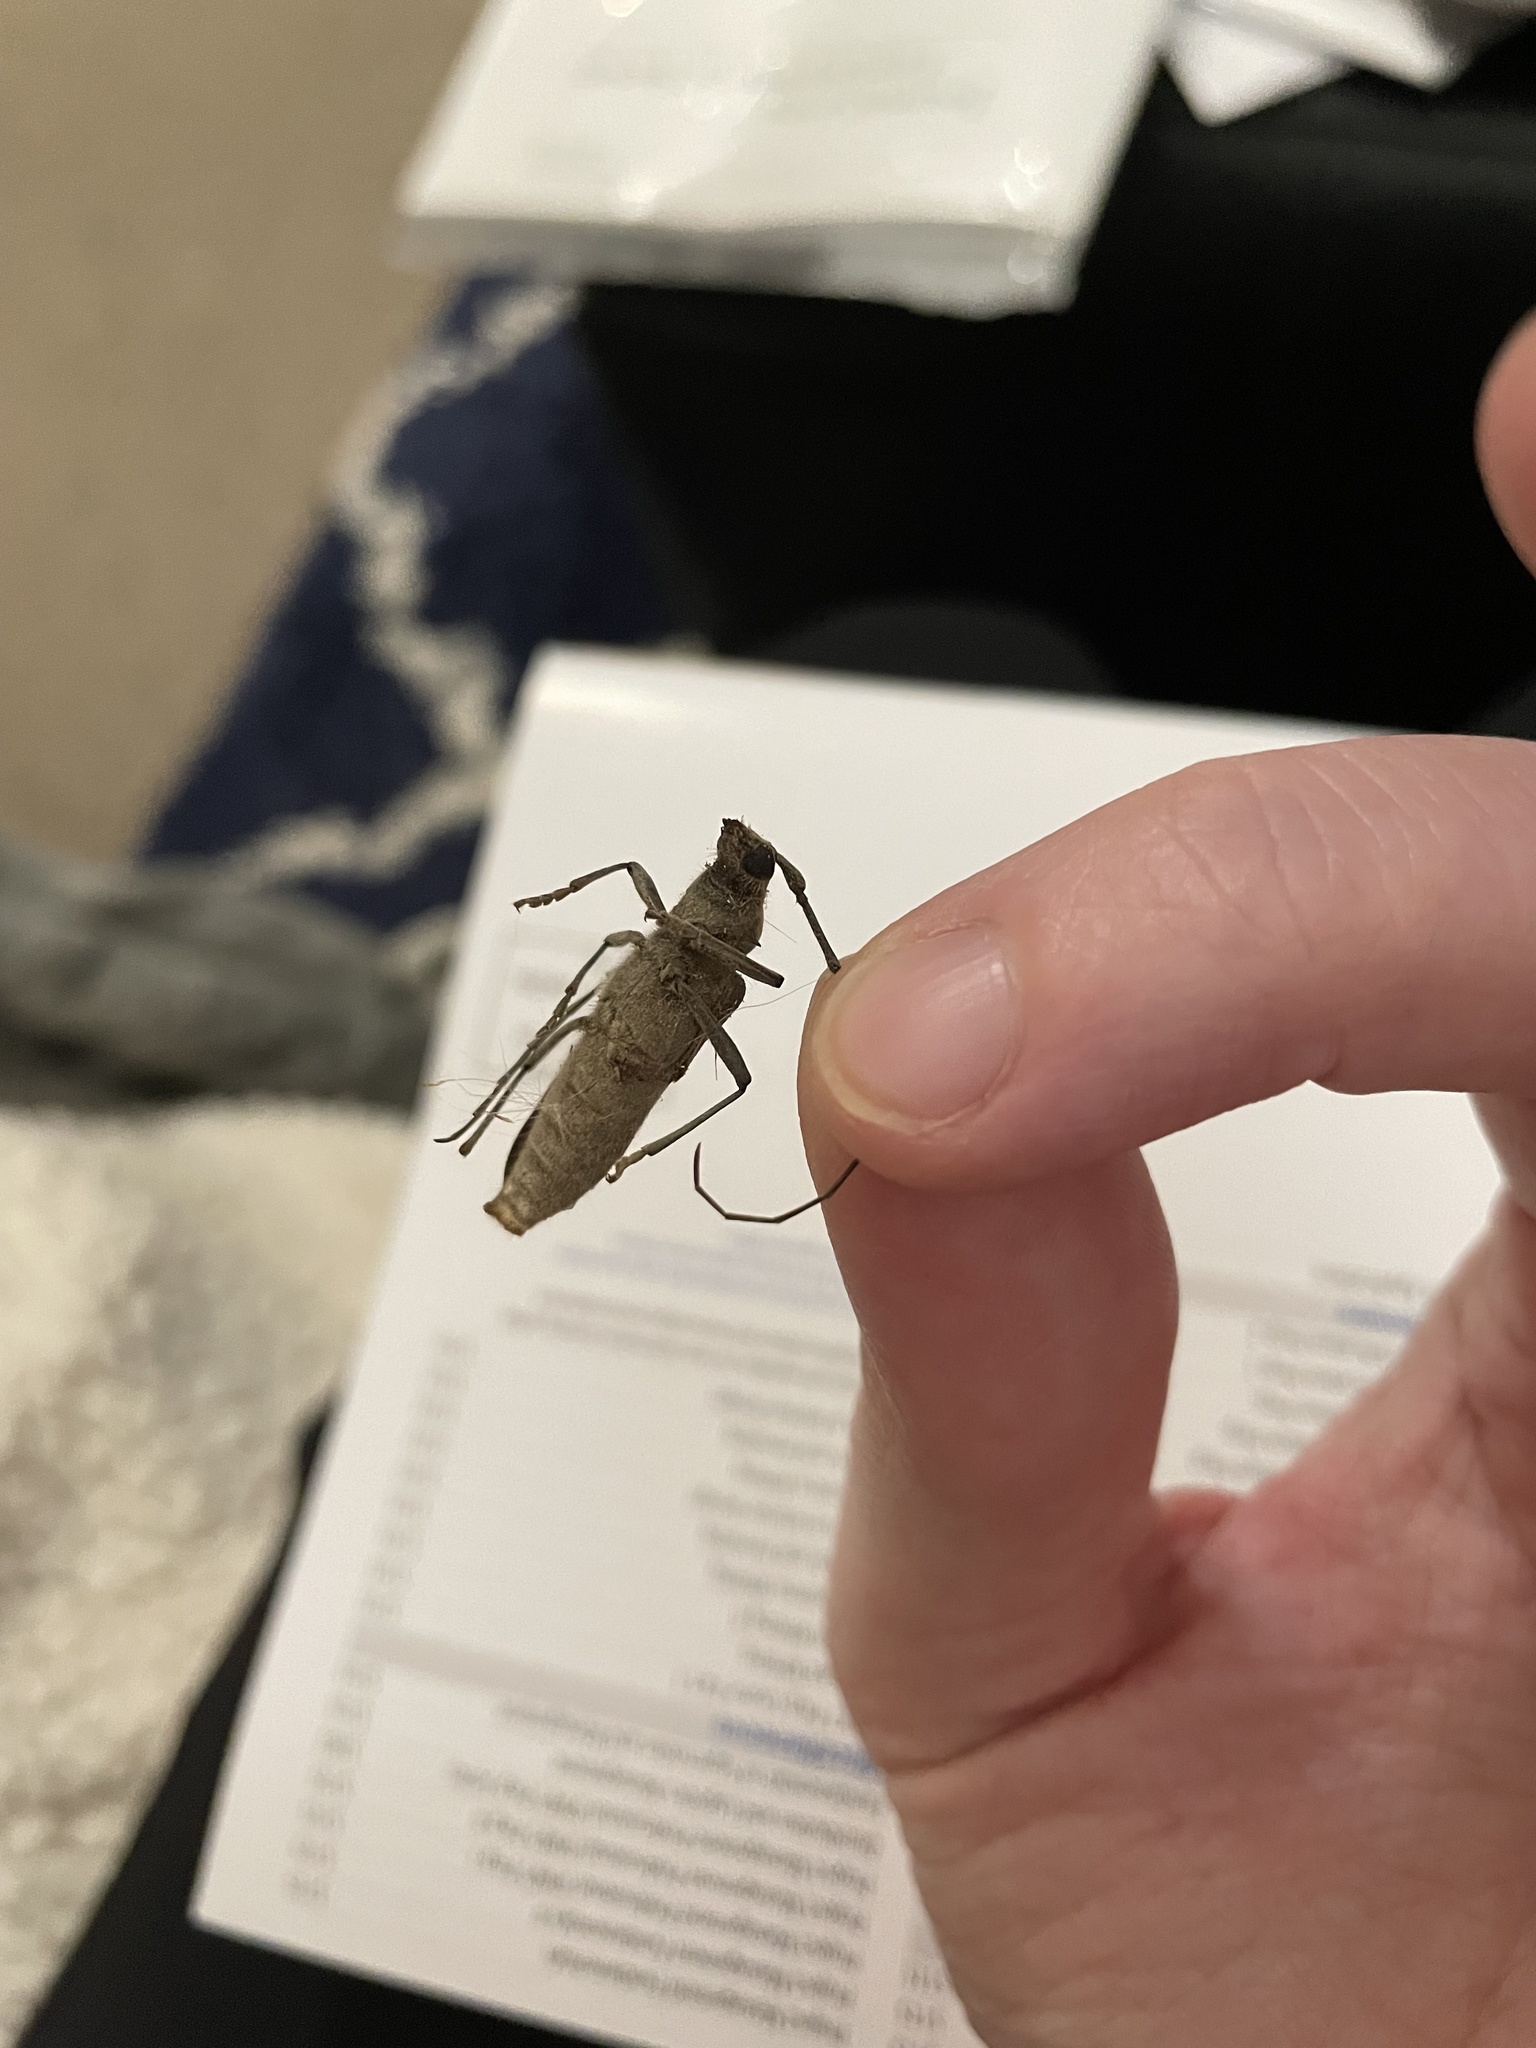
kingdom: Animalia
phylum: Arthropoda
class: Insecta
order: Coleoptera
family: Cerambycidae
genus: Knulliana
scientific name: Knulliana cincta
